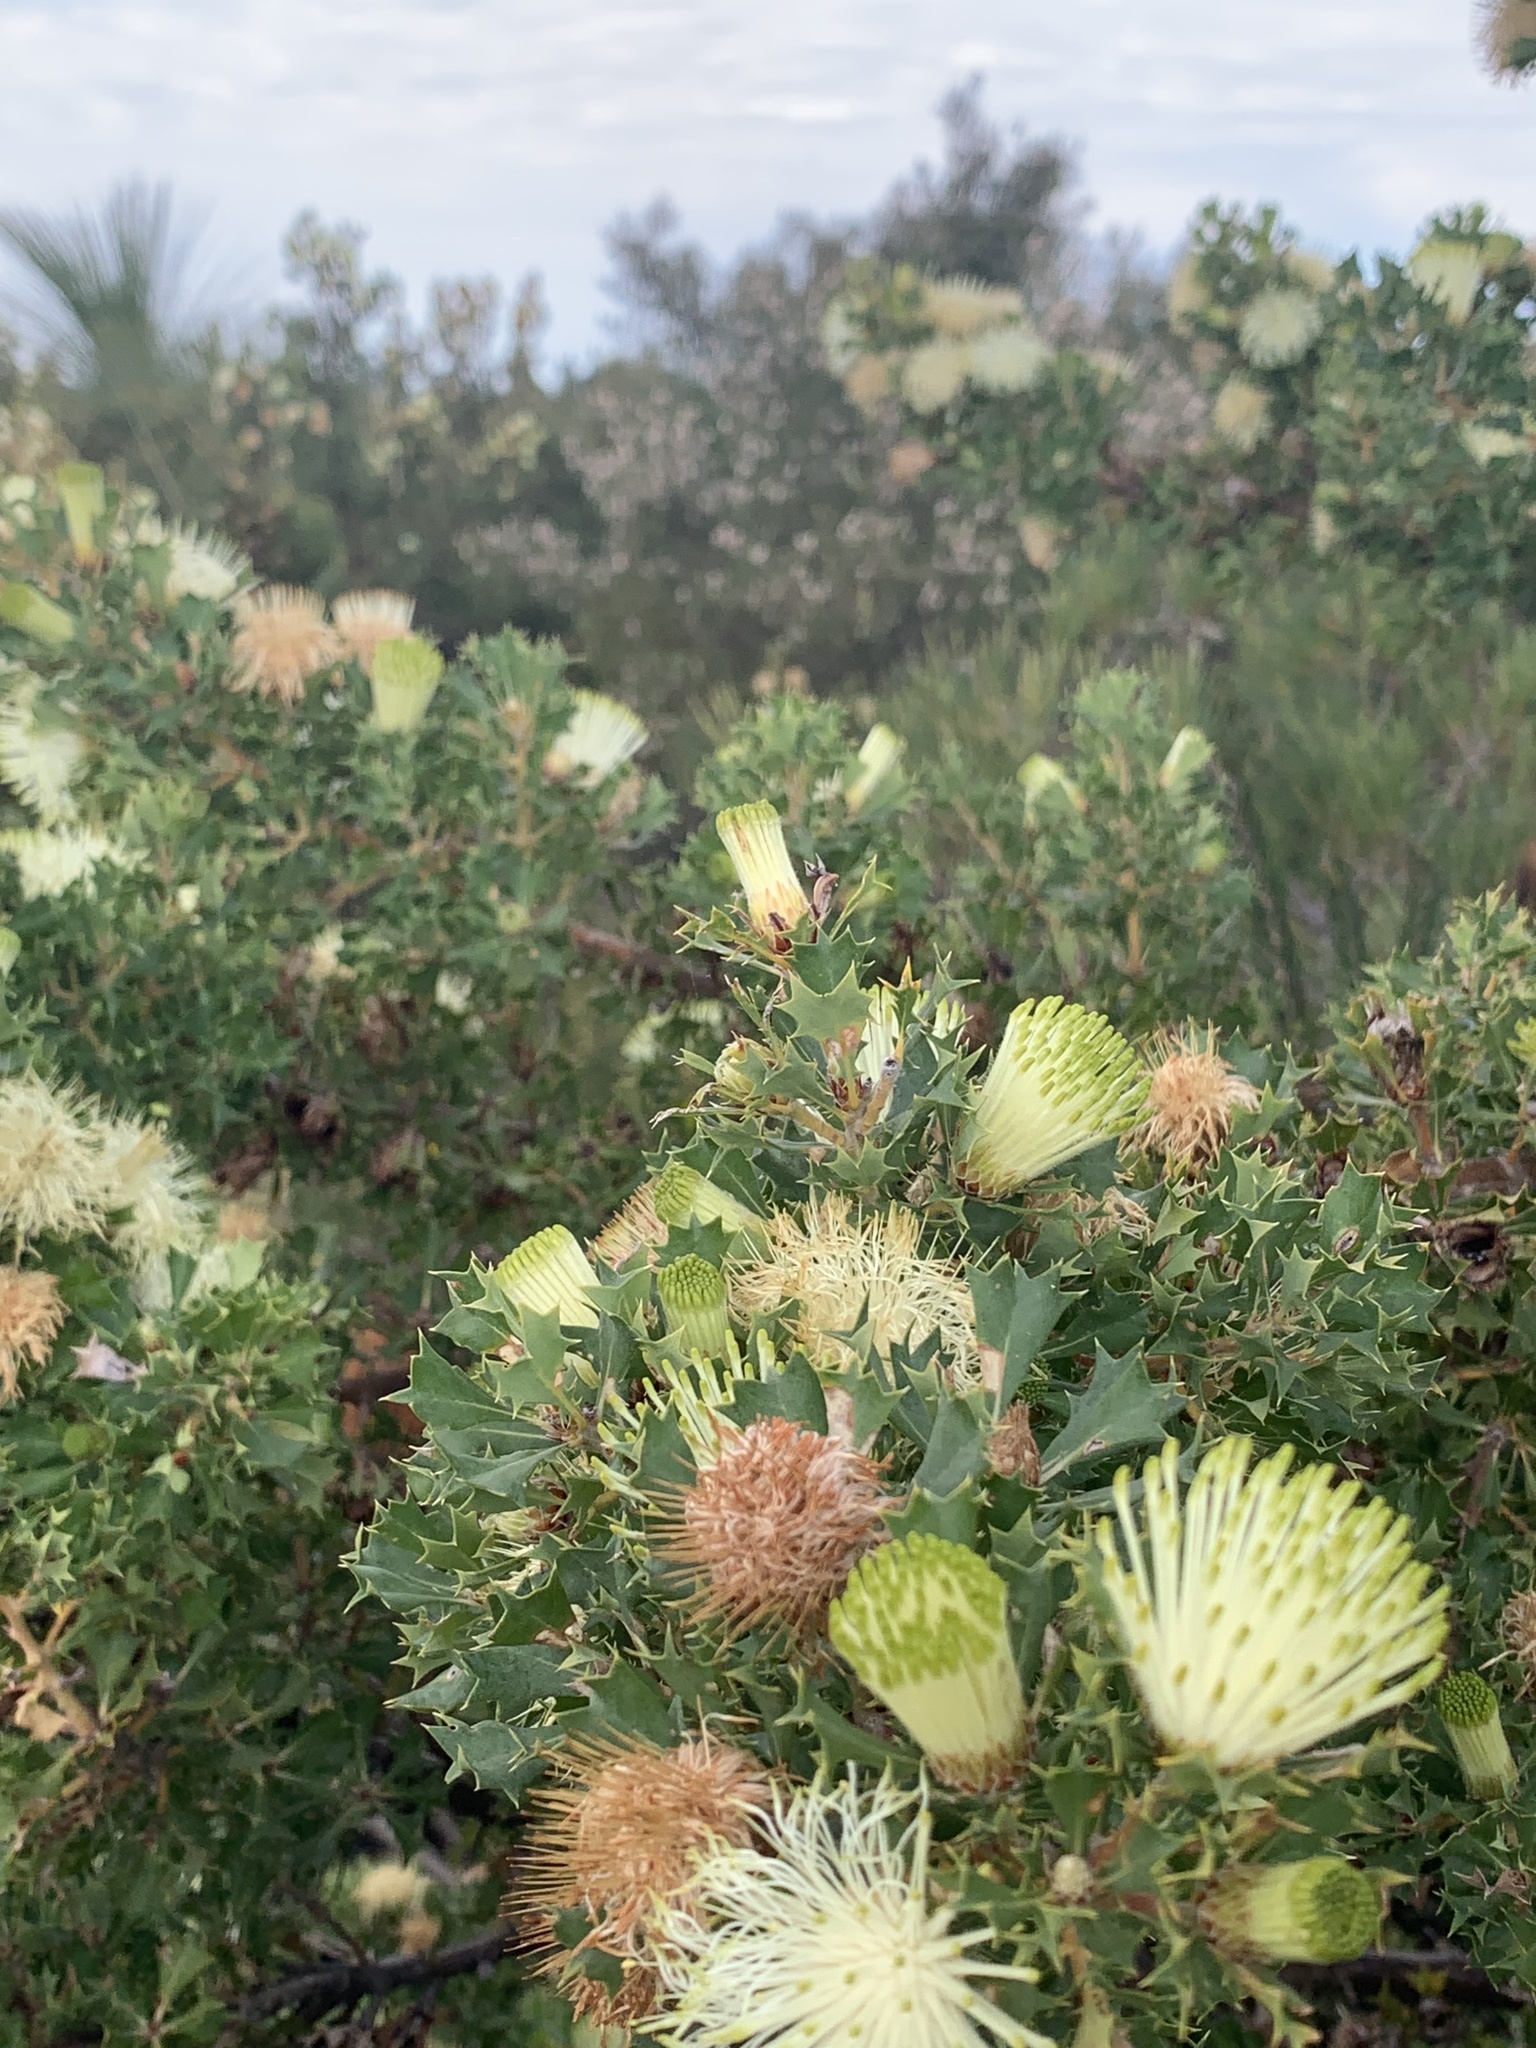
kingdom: Plantae
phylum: Tracheophyta
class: Magnoliopsida
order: Proteales
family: Proteaceae
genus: Banksia
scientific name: Banksia sessilis
